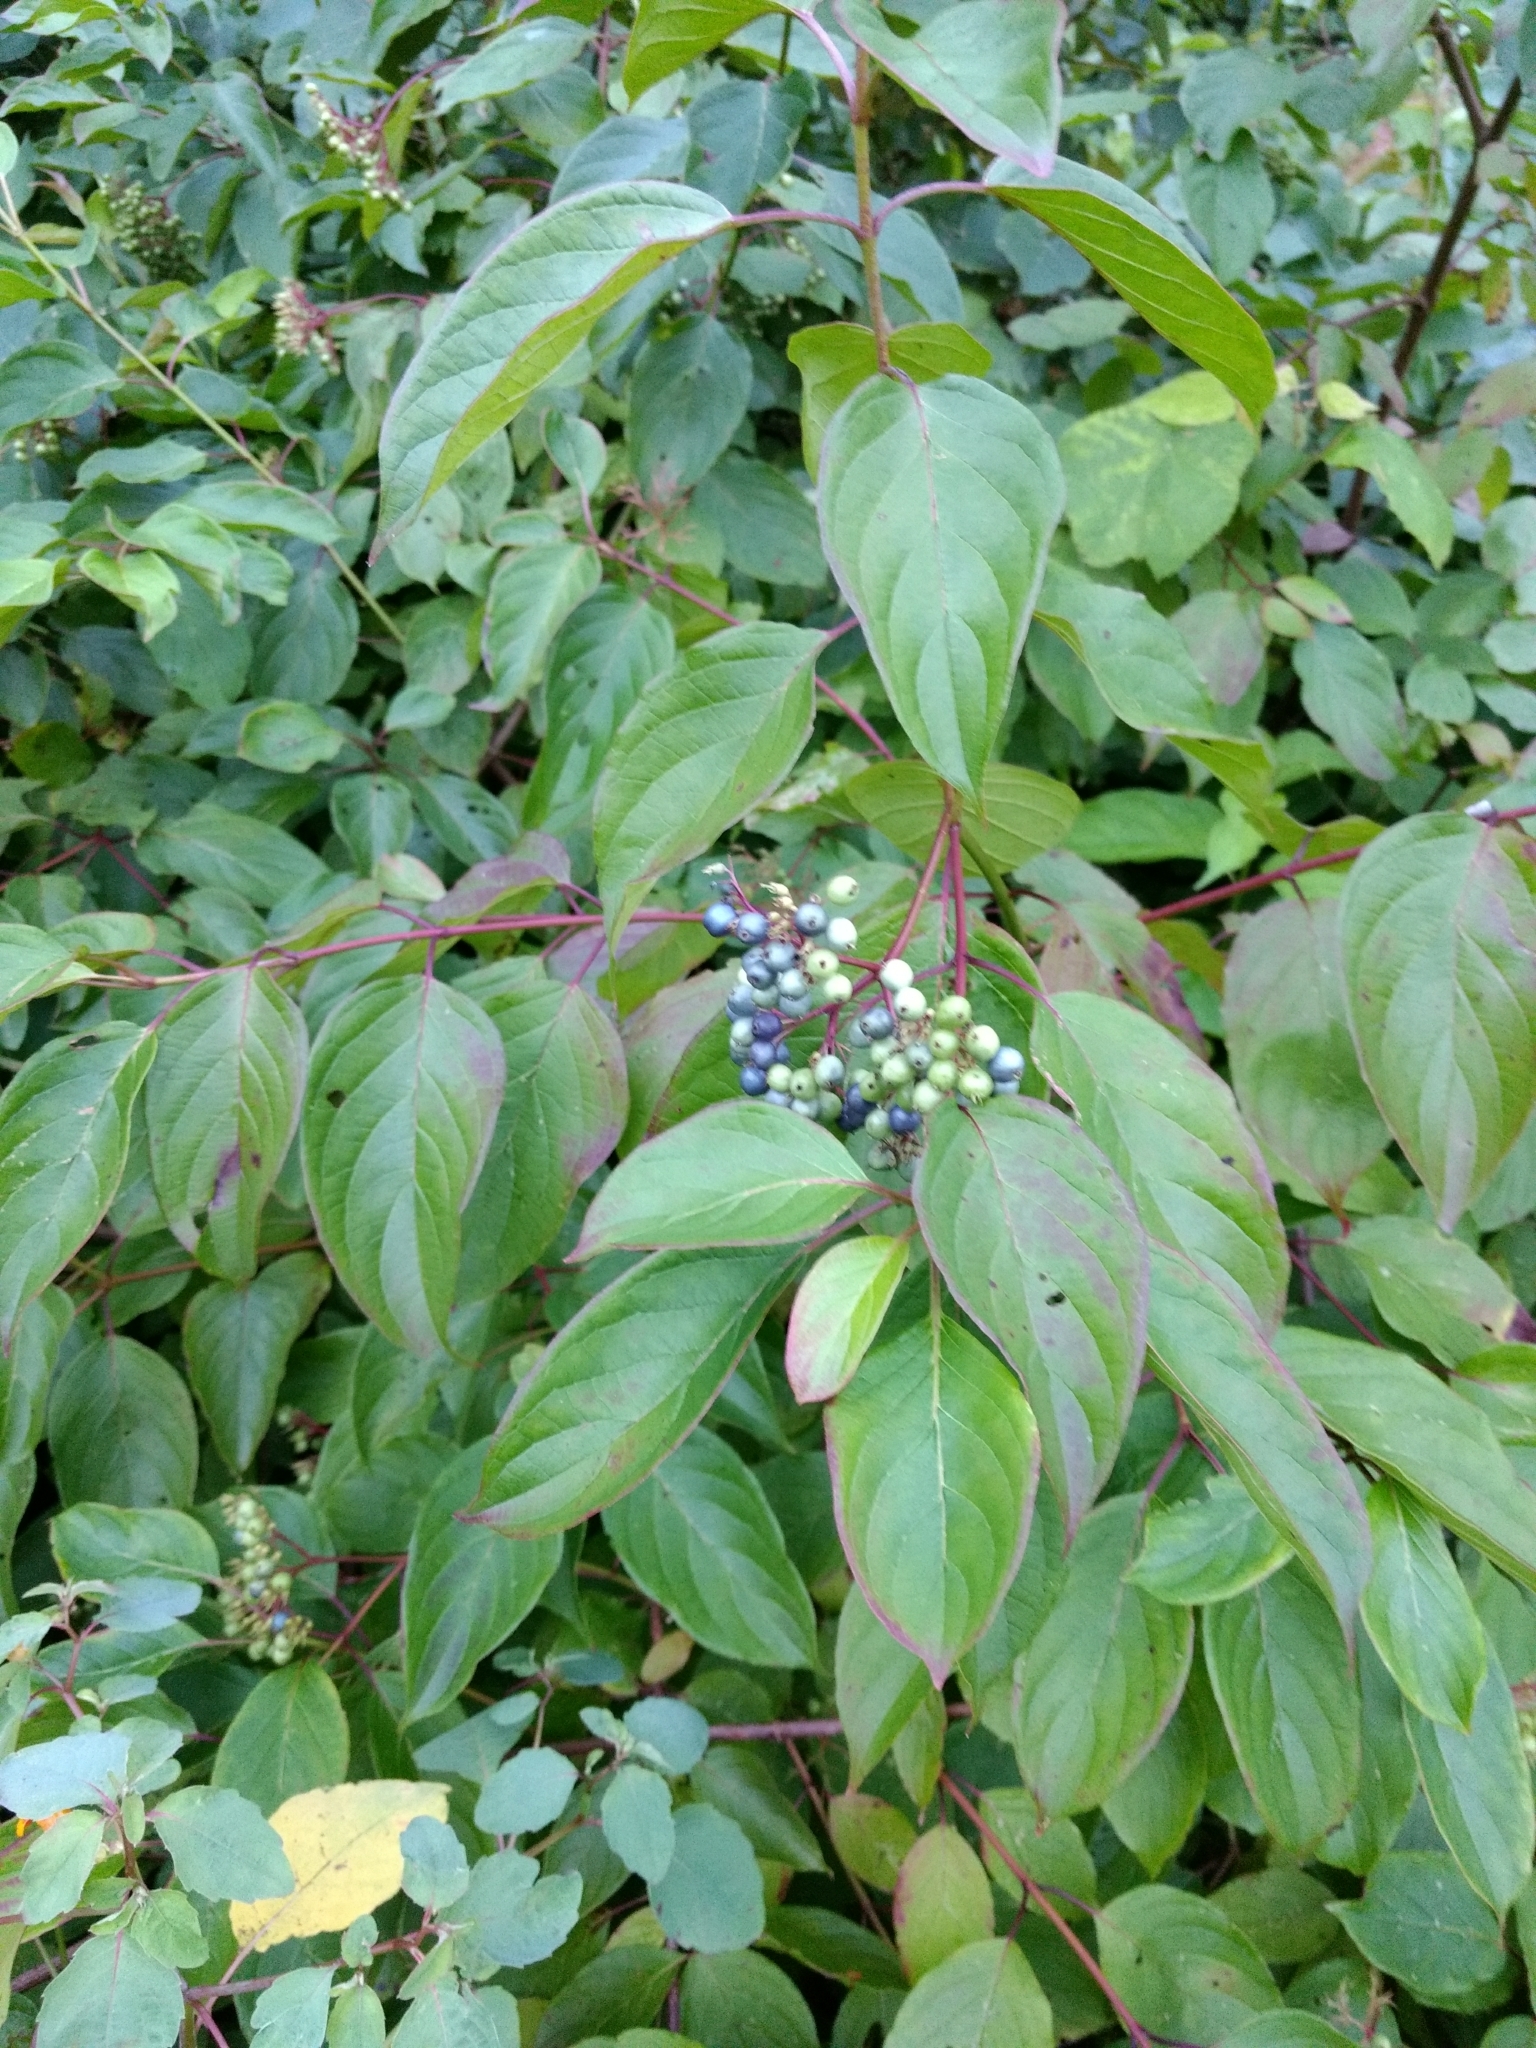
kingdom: Plantae
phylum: Tracheophyta
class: Magnoliopsida
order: Cornales
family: Cornaceae
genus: Cornus
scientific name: Cornus amomum
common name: Silky dogwood
